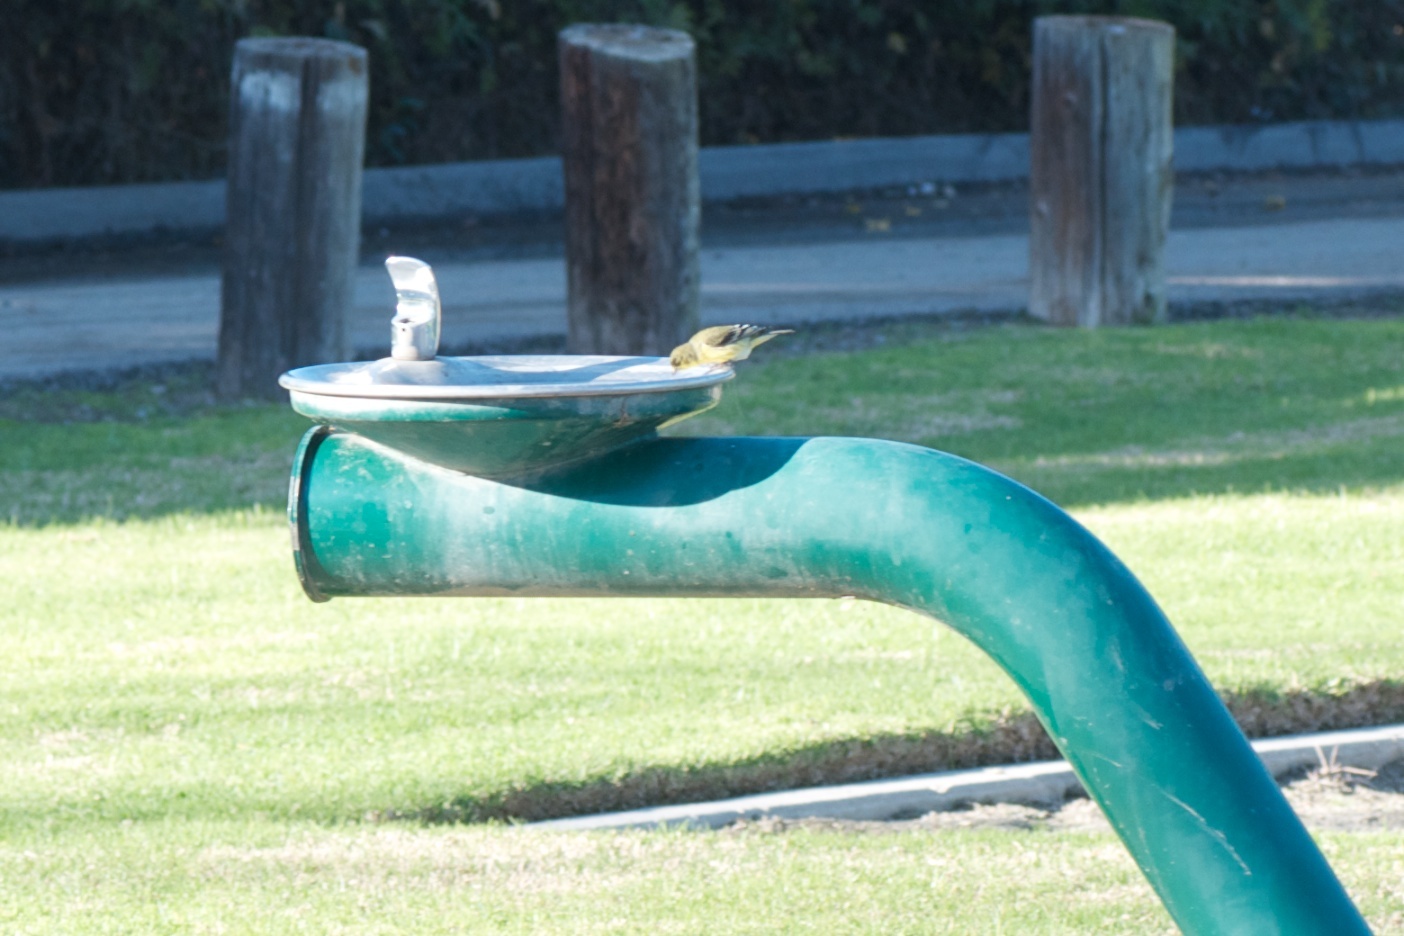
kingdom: Animalia
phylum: Chordata
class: Aves
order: Passeriformes
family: Fringillidae
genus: Spinus
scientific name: Spinus tristis
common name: American goldfinch
